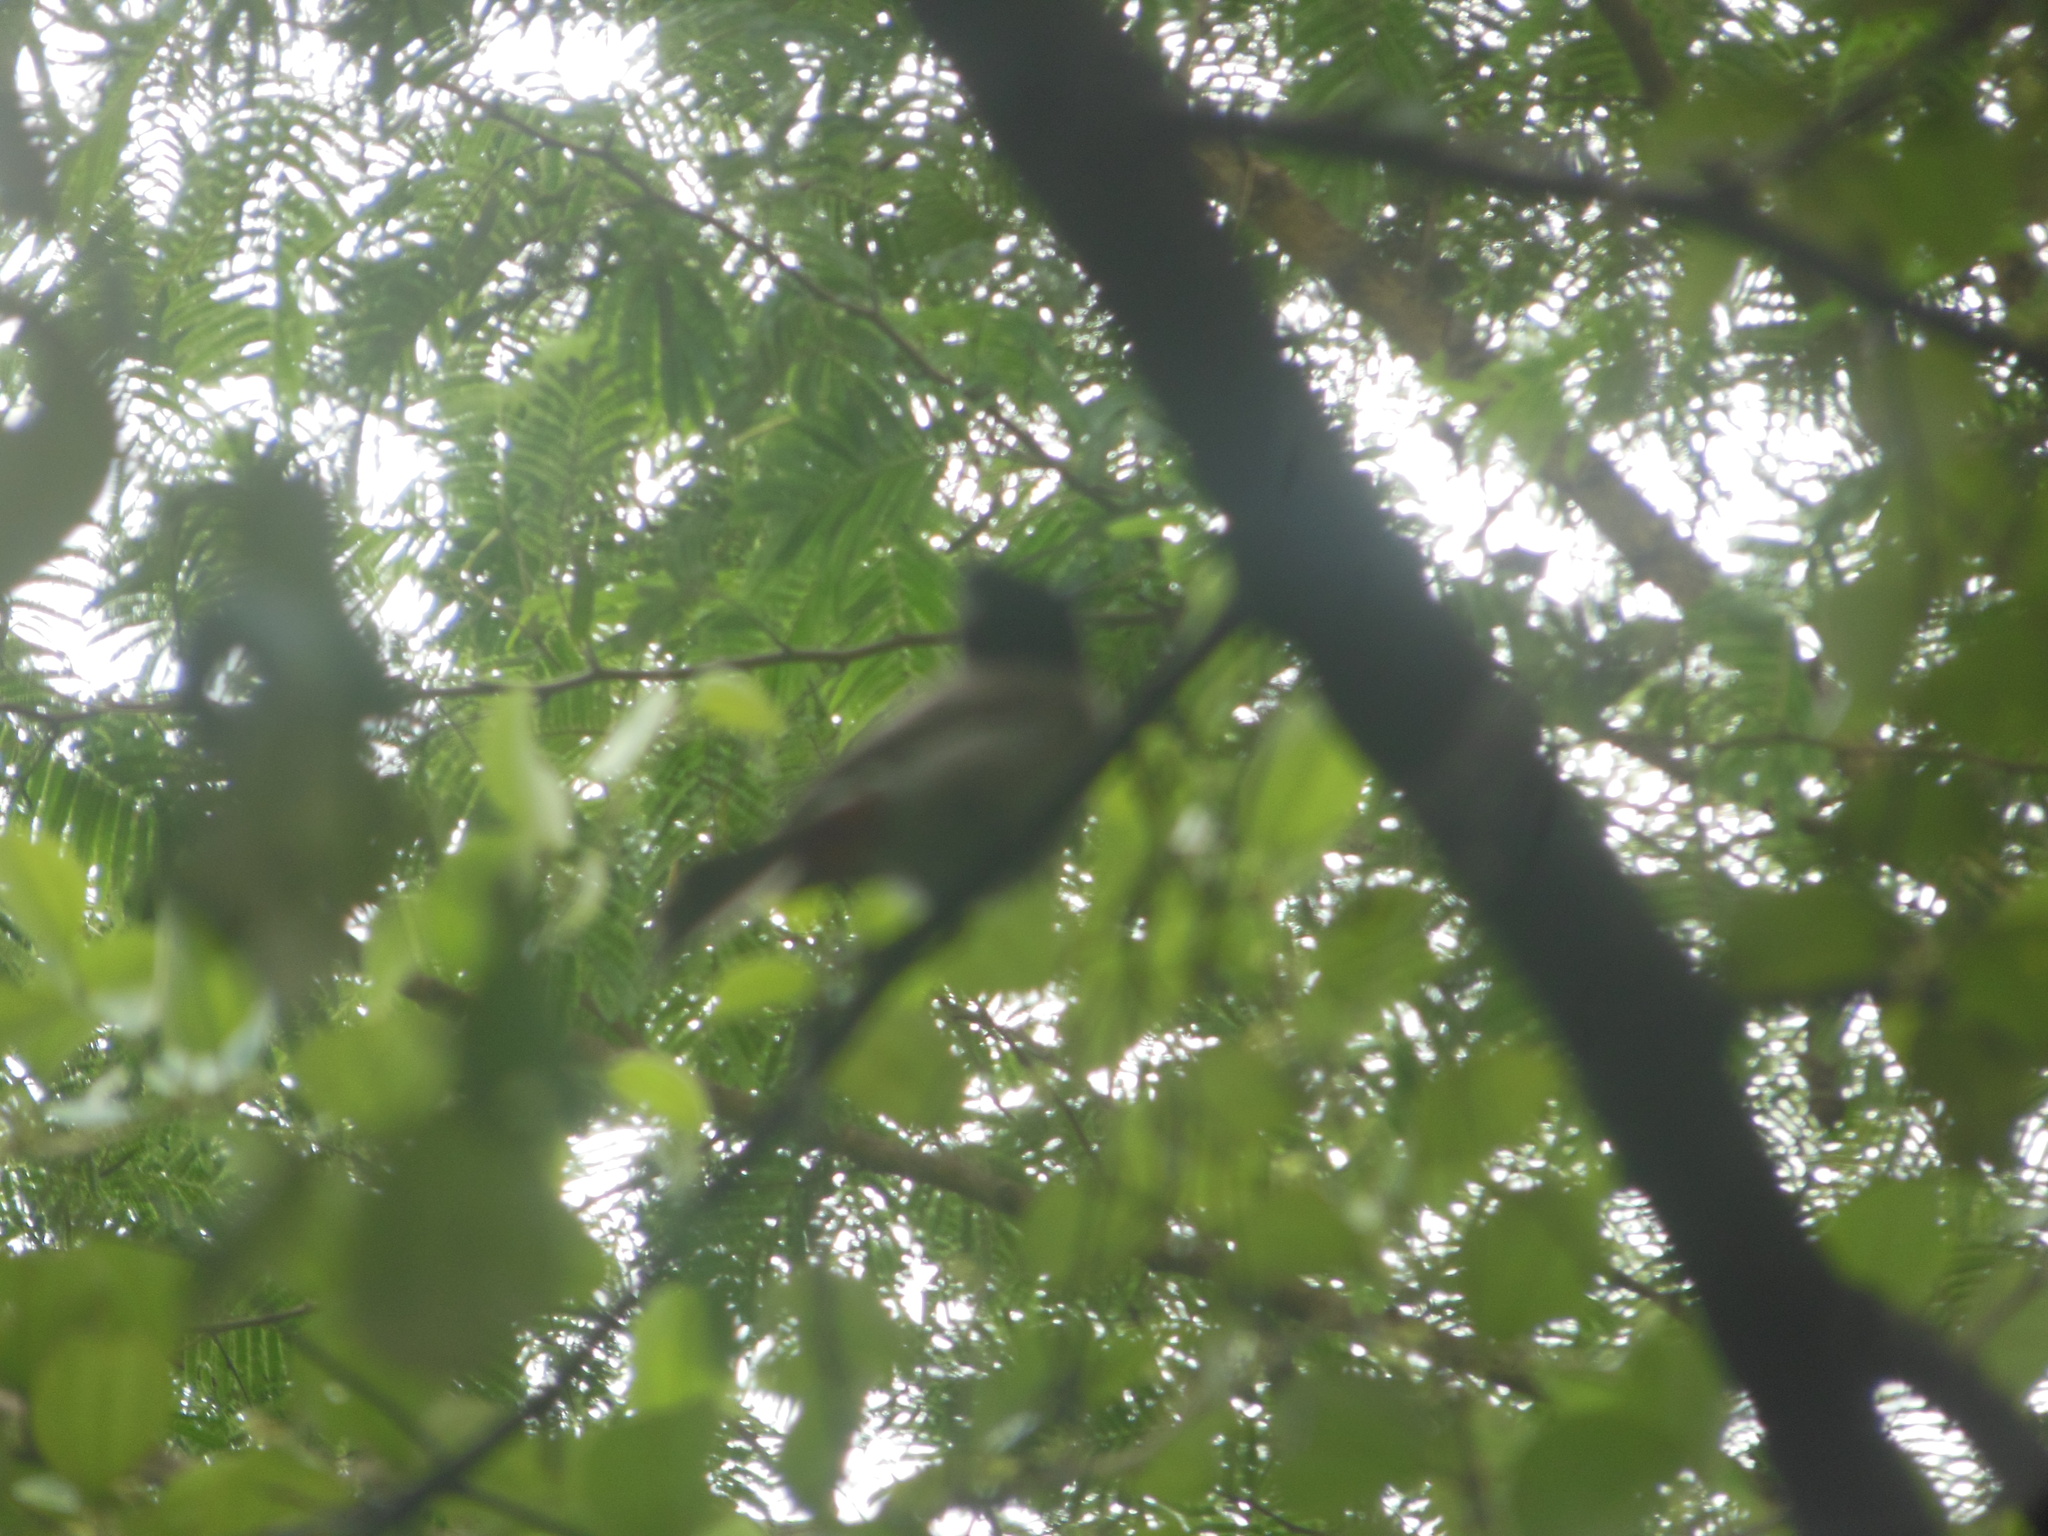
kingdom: Animalia
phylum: Chordata
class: Aves
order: Passeriformes
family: Pycnonotidae
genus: Pycnonotus
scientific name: Pycnonotus cafer
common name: Red-vented bulbul
